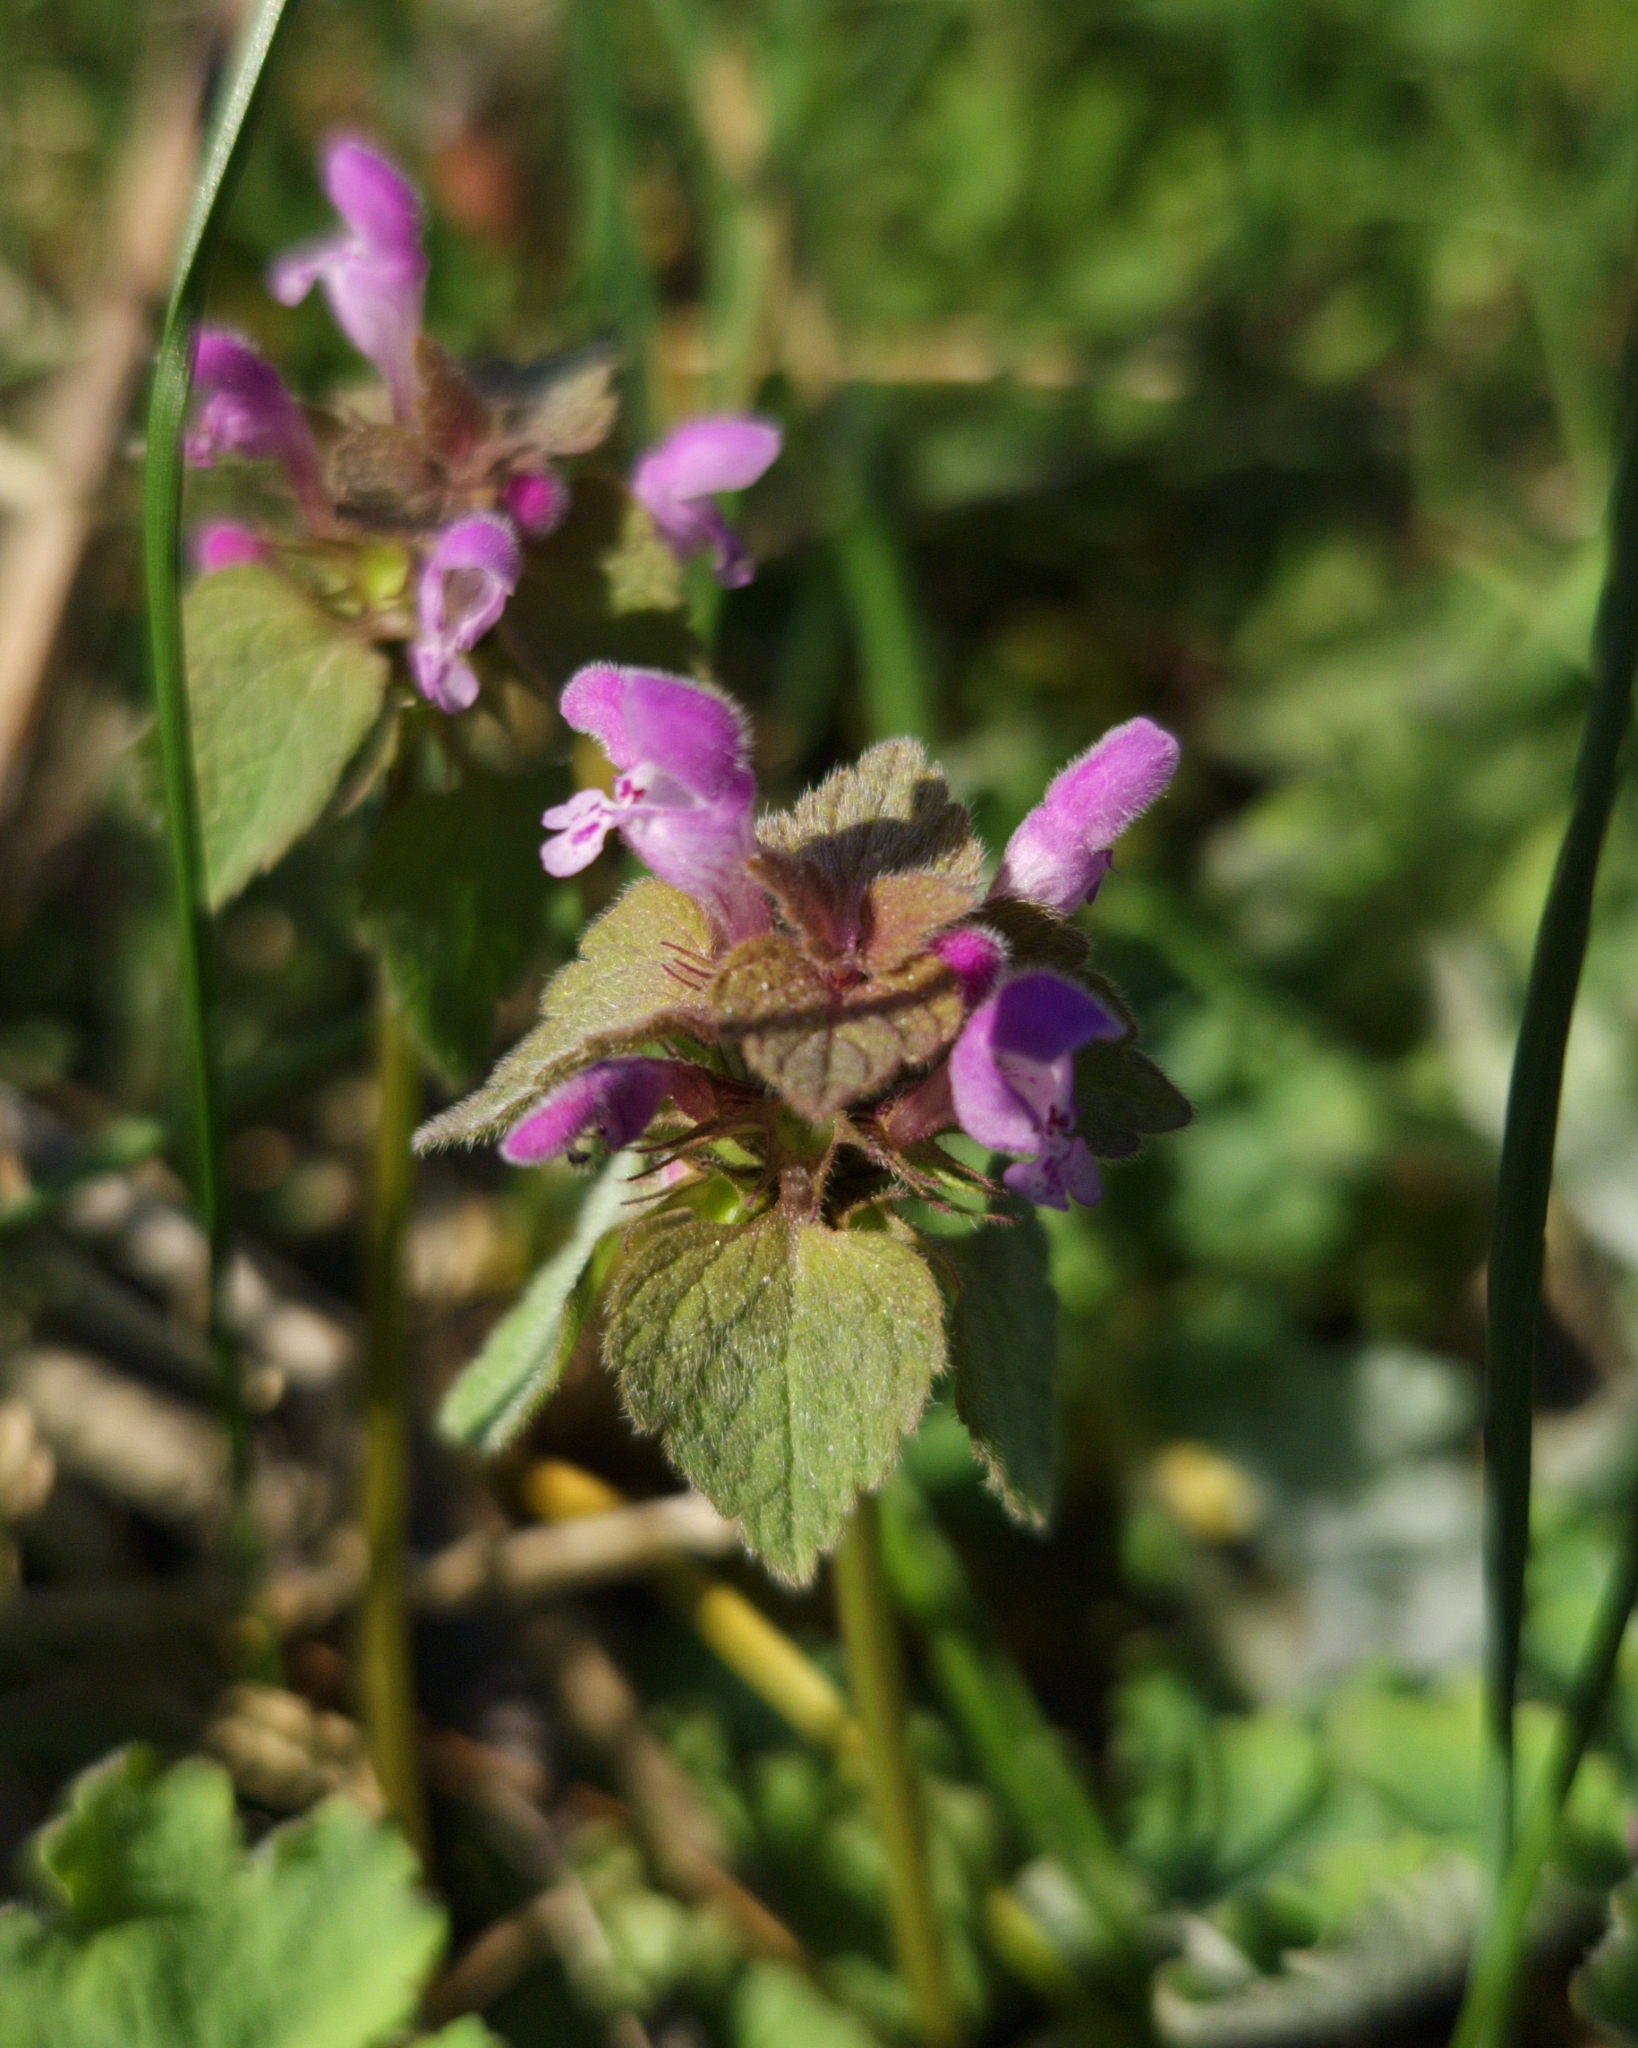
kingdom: Plantae
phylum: Tracheophyta
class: Magnoliopsida
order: Lamiales
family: Lamiaceae
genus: Lamium
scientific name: Lamium purpureum
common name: Red dead-nettle
